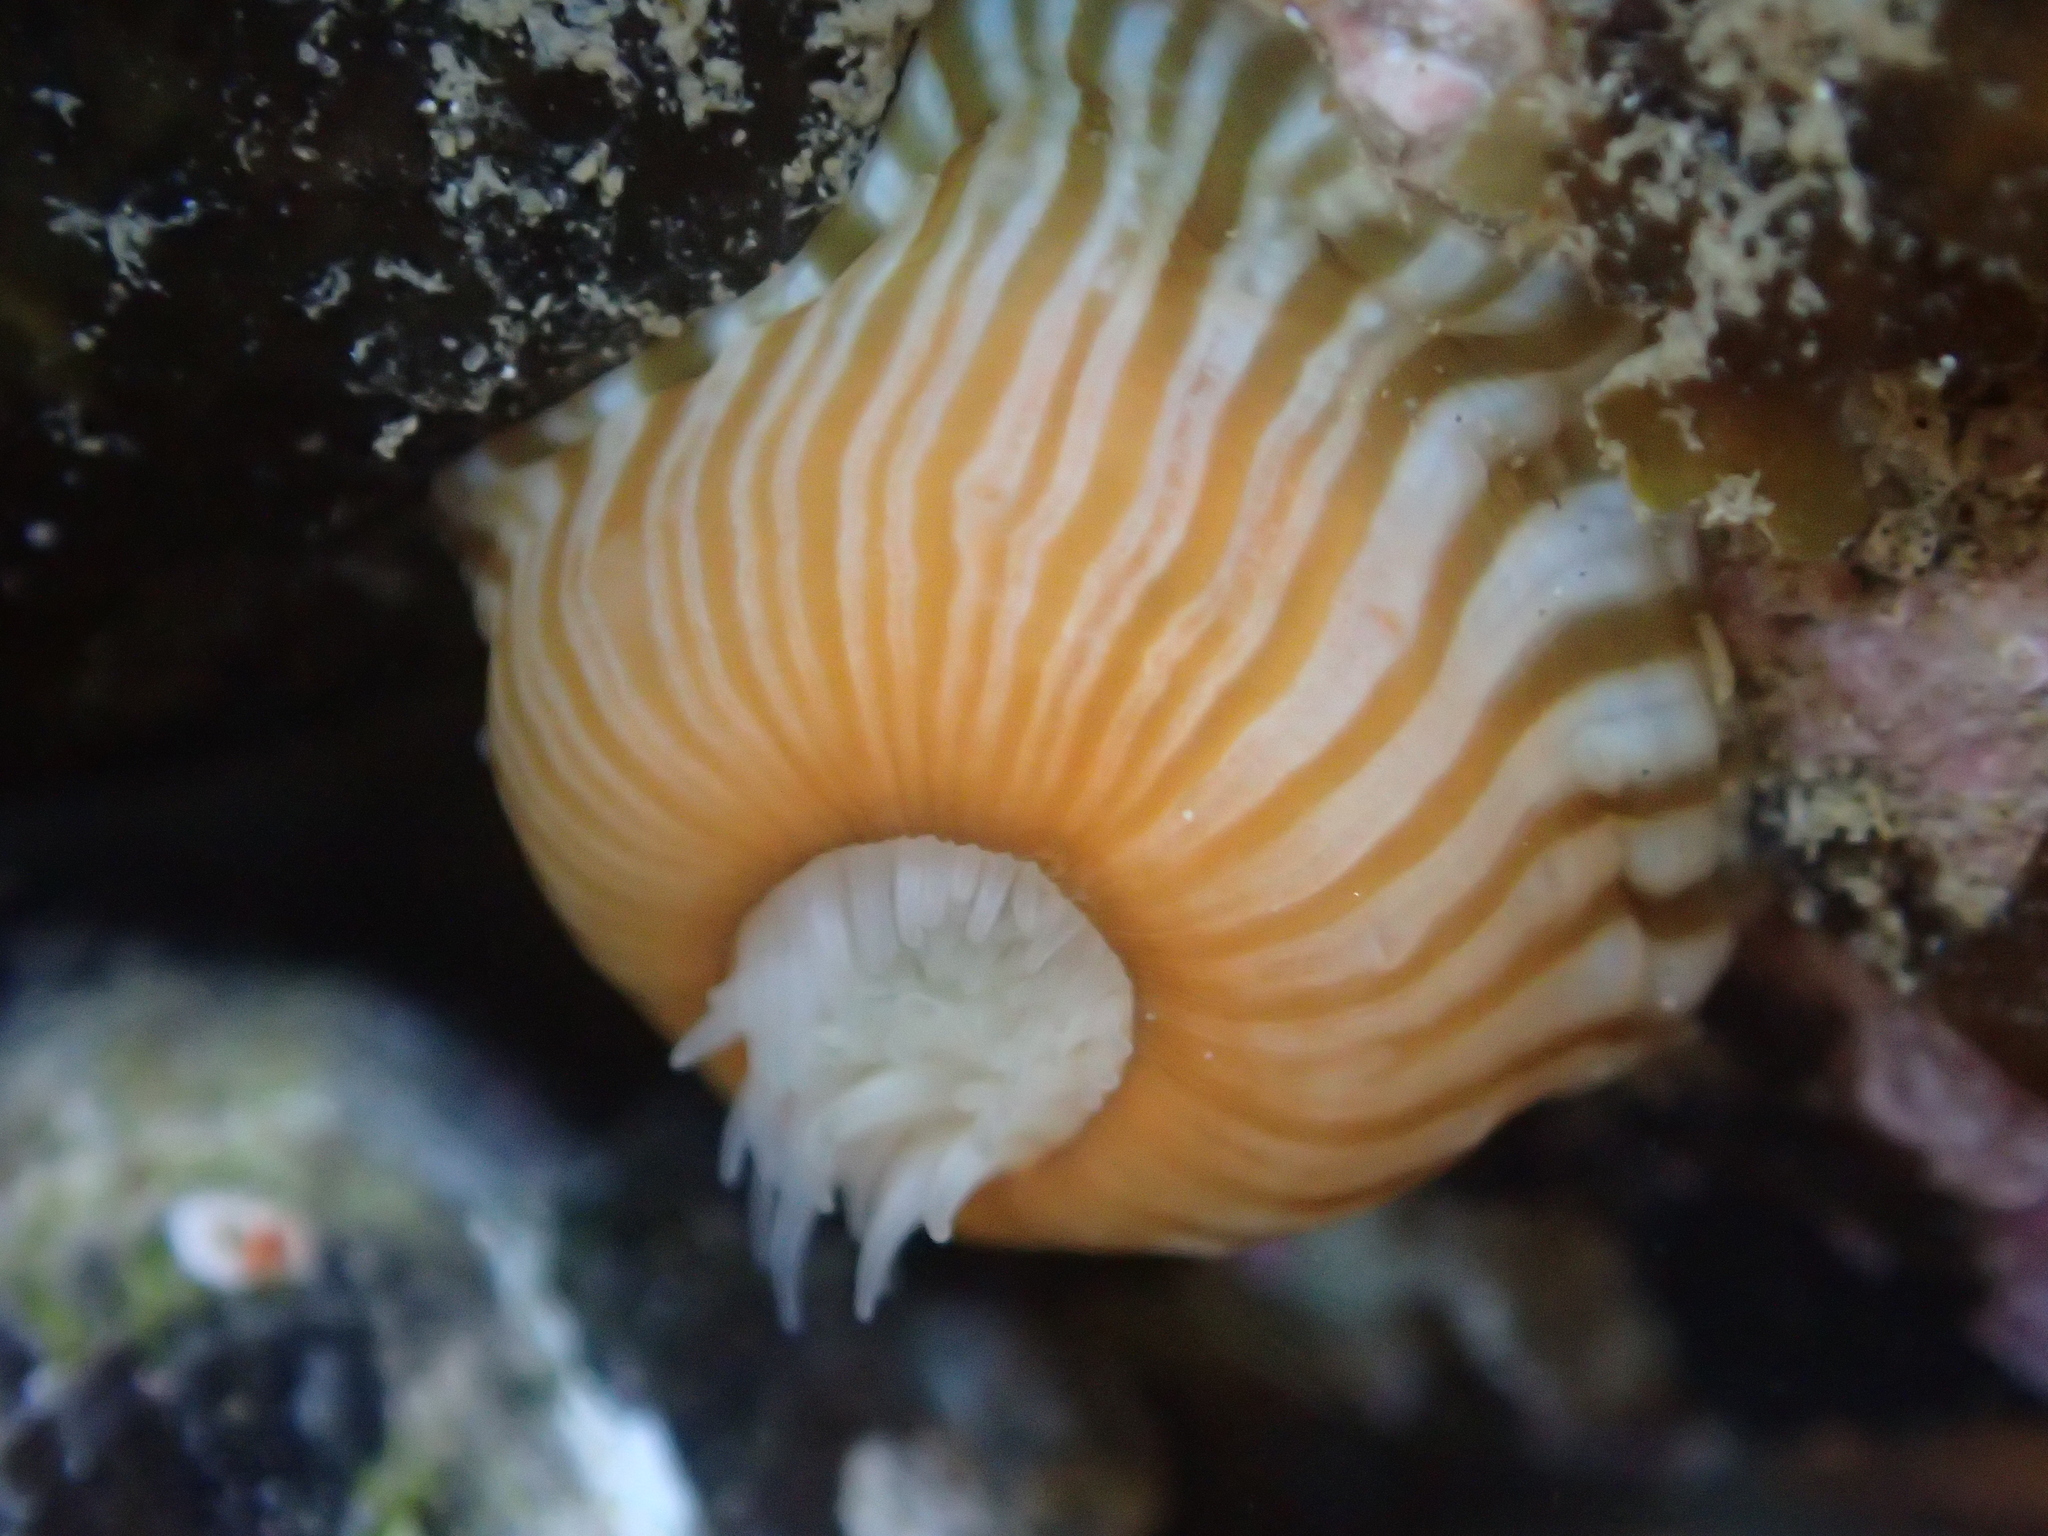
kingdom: Animalia
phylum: Cnidaria
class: Anthozoa
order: Actiniaria
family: Sagartiidae
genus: Anthothoe
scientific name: Anthothoe albocincta
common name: Orange striped anemone
